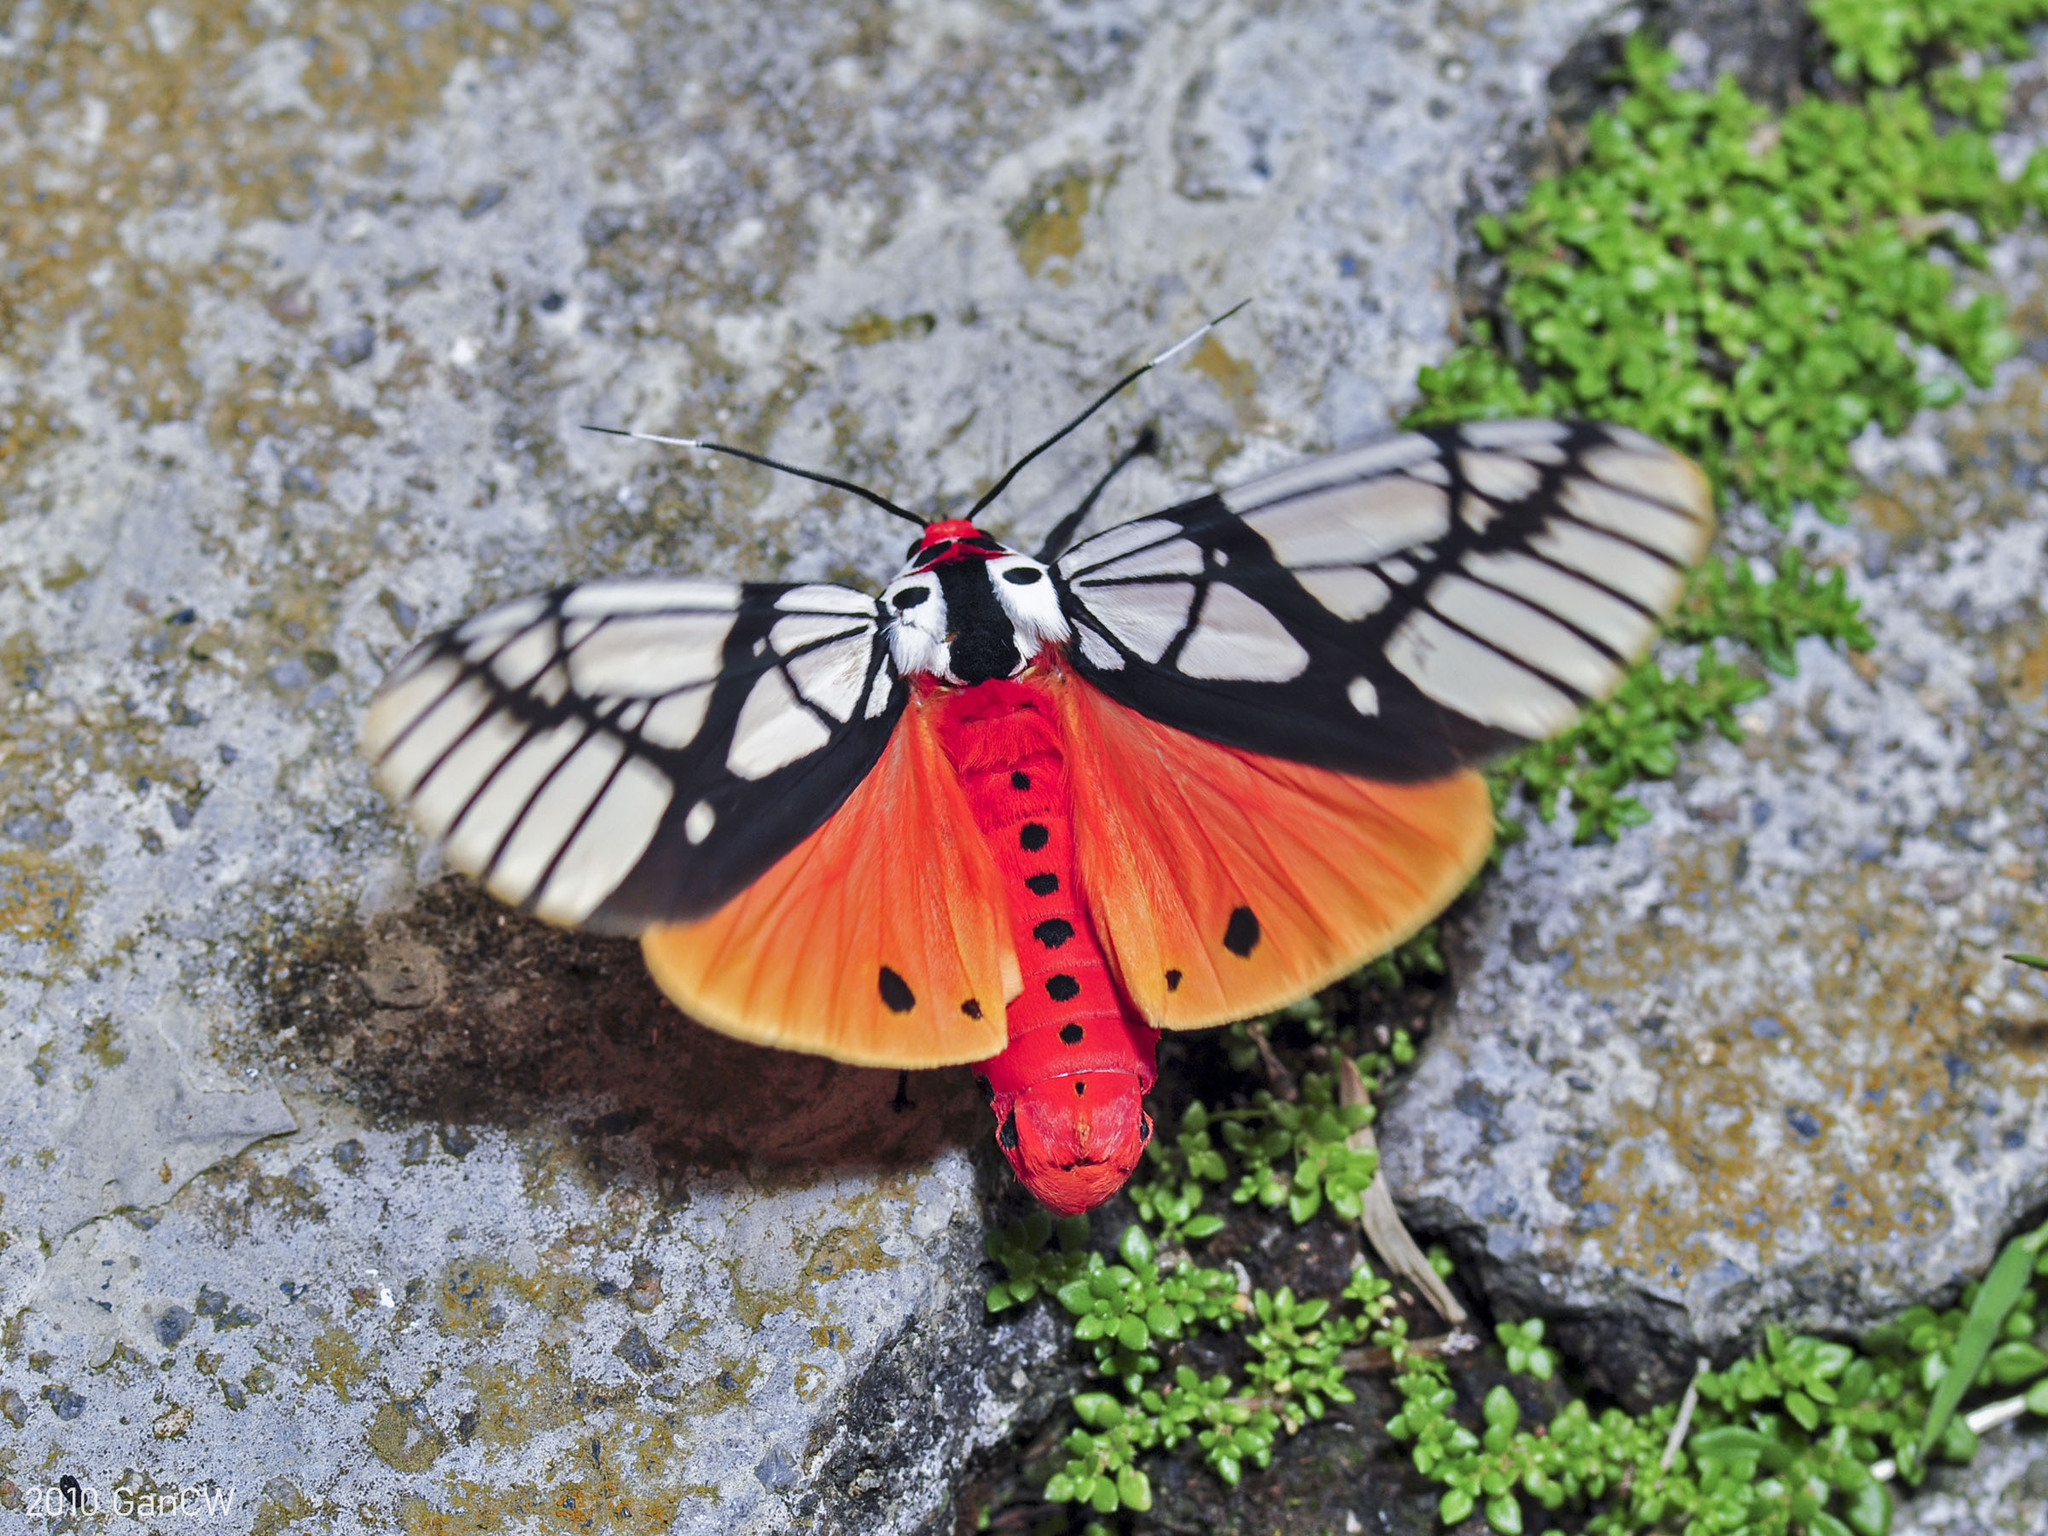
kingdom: Animalia
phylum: Arthropoda
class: Insecta
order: Lepidoptera
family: Erebidae
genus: Areas
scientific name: Areas galactina
